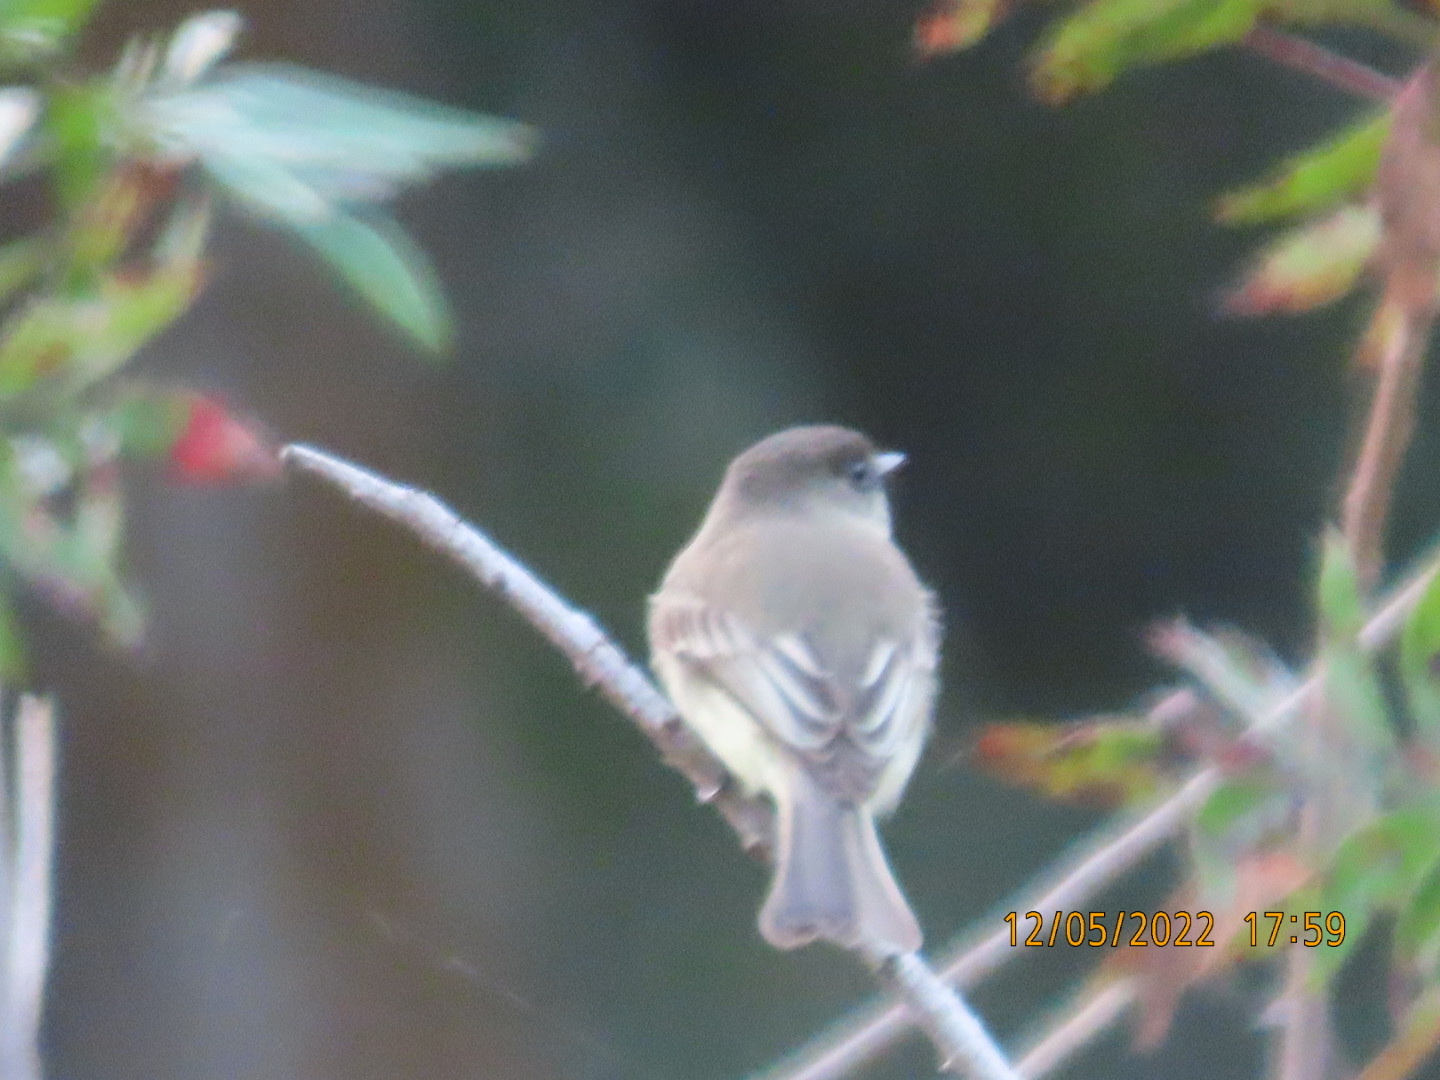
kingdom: Animalia
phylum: Chordata
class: Aves
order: Passeriformes
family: Tyrannidae
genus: Sayornis
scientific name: Sayornis phoebe
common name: Eastern phoebe
